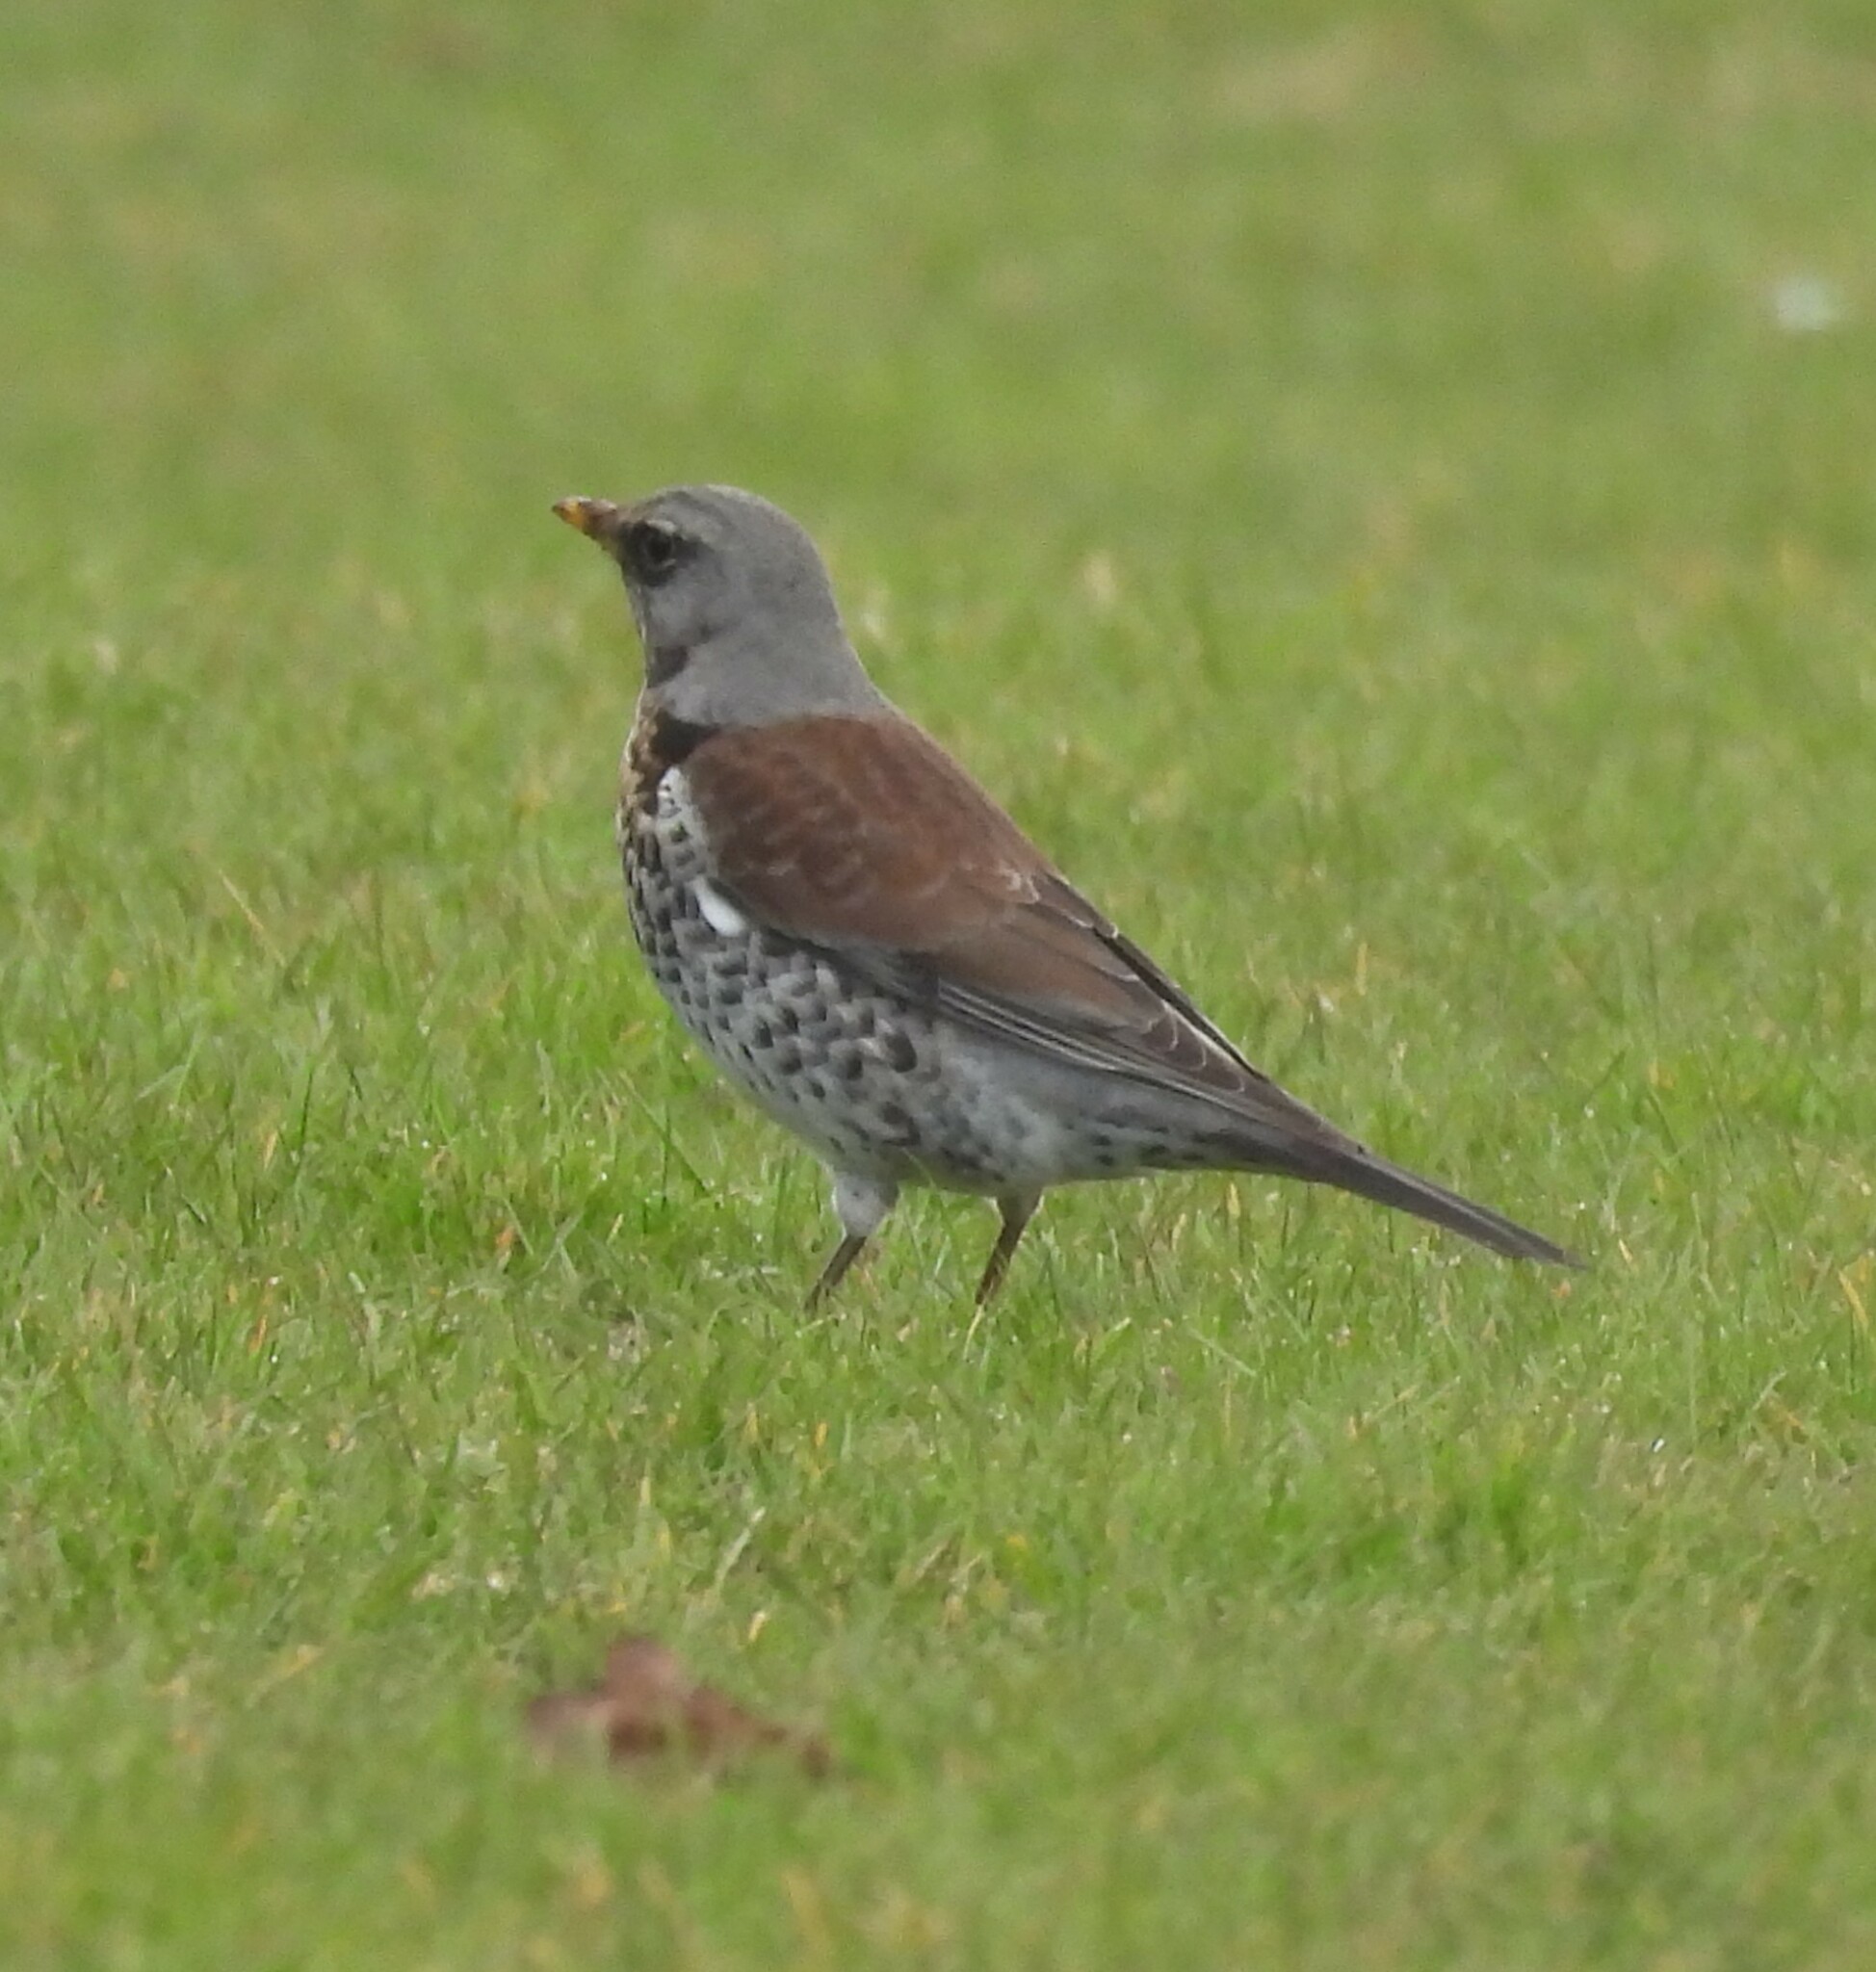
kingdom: Animalia
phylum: Chordata
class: Aves
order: Passeriformes
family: Turdidae
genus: Turdus
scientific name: Turdus pilaris
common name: Fieldfare
